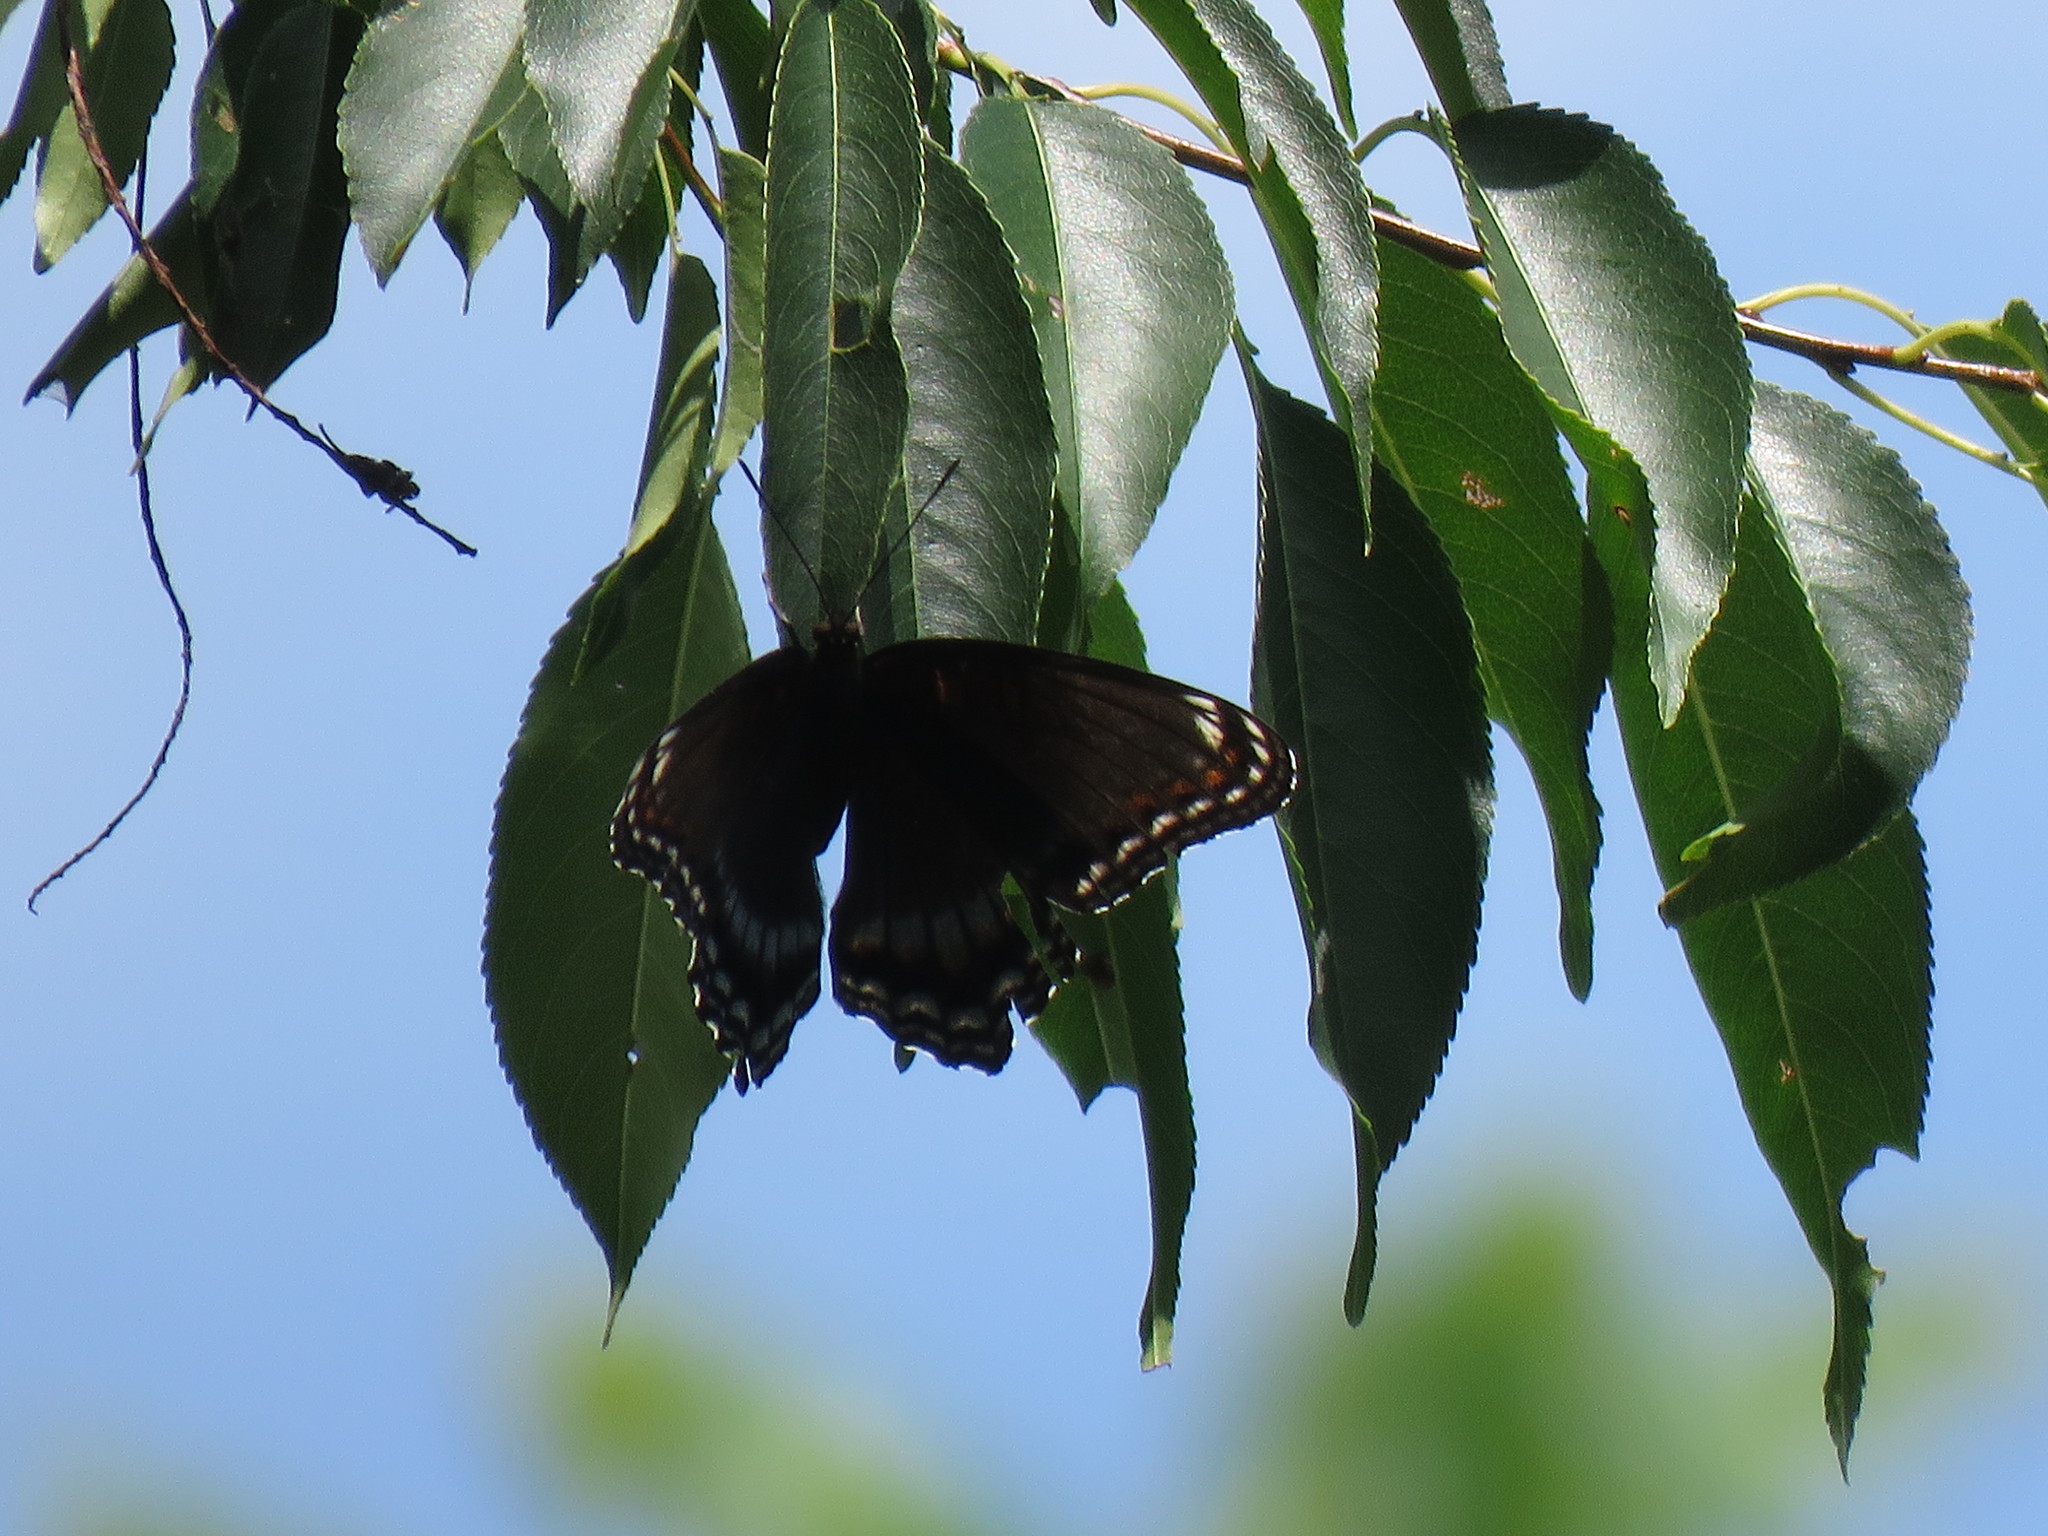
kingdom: Animalia
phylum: Arthropoda
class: Insecta
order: Lepidoptera
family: Nymphalidae
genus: Limenitis
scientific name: Limenitis arthemis
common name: Red-spotted admiral
